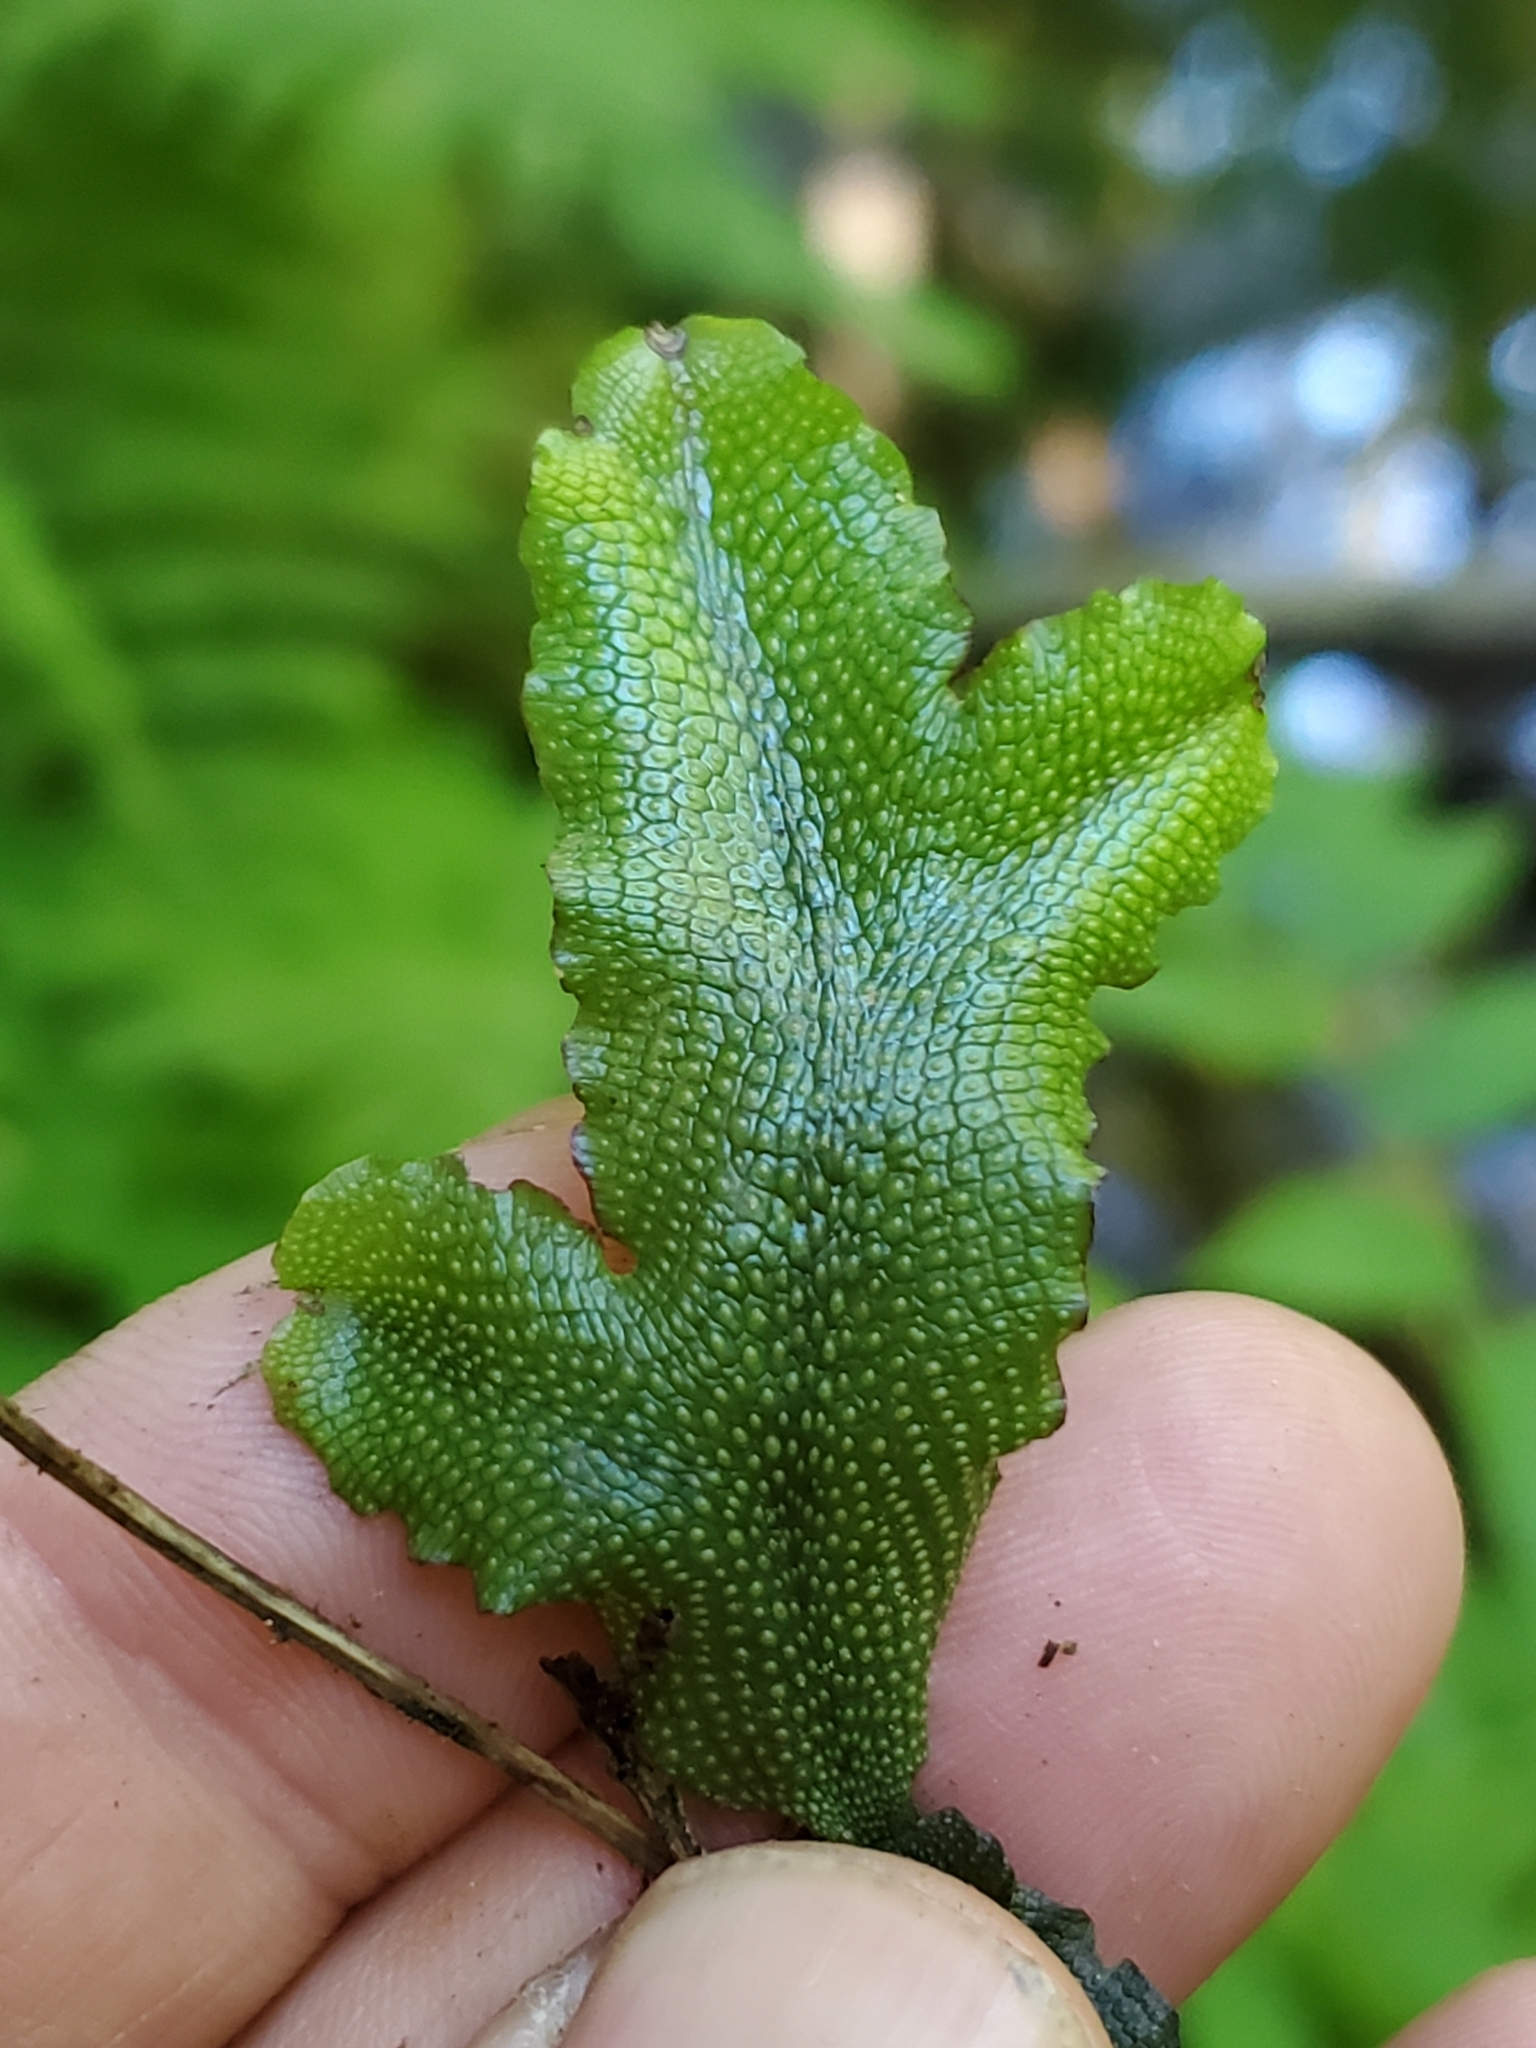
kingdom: Plantae
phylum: Marchantiophyta
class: Marchantiopsida
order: Marchantiales
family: Conocephalaceae
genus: Conocephalum
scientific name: Conocephalum salebrosum
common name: Cat-tongue liverwort
